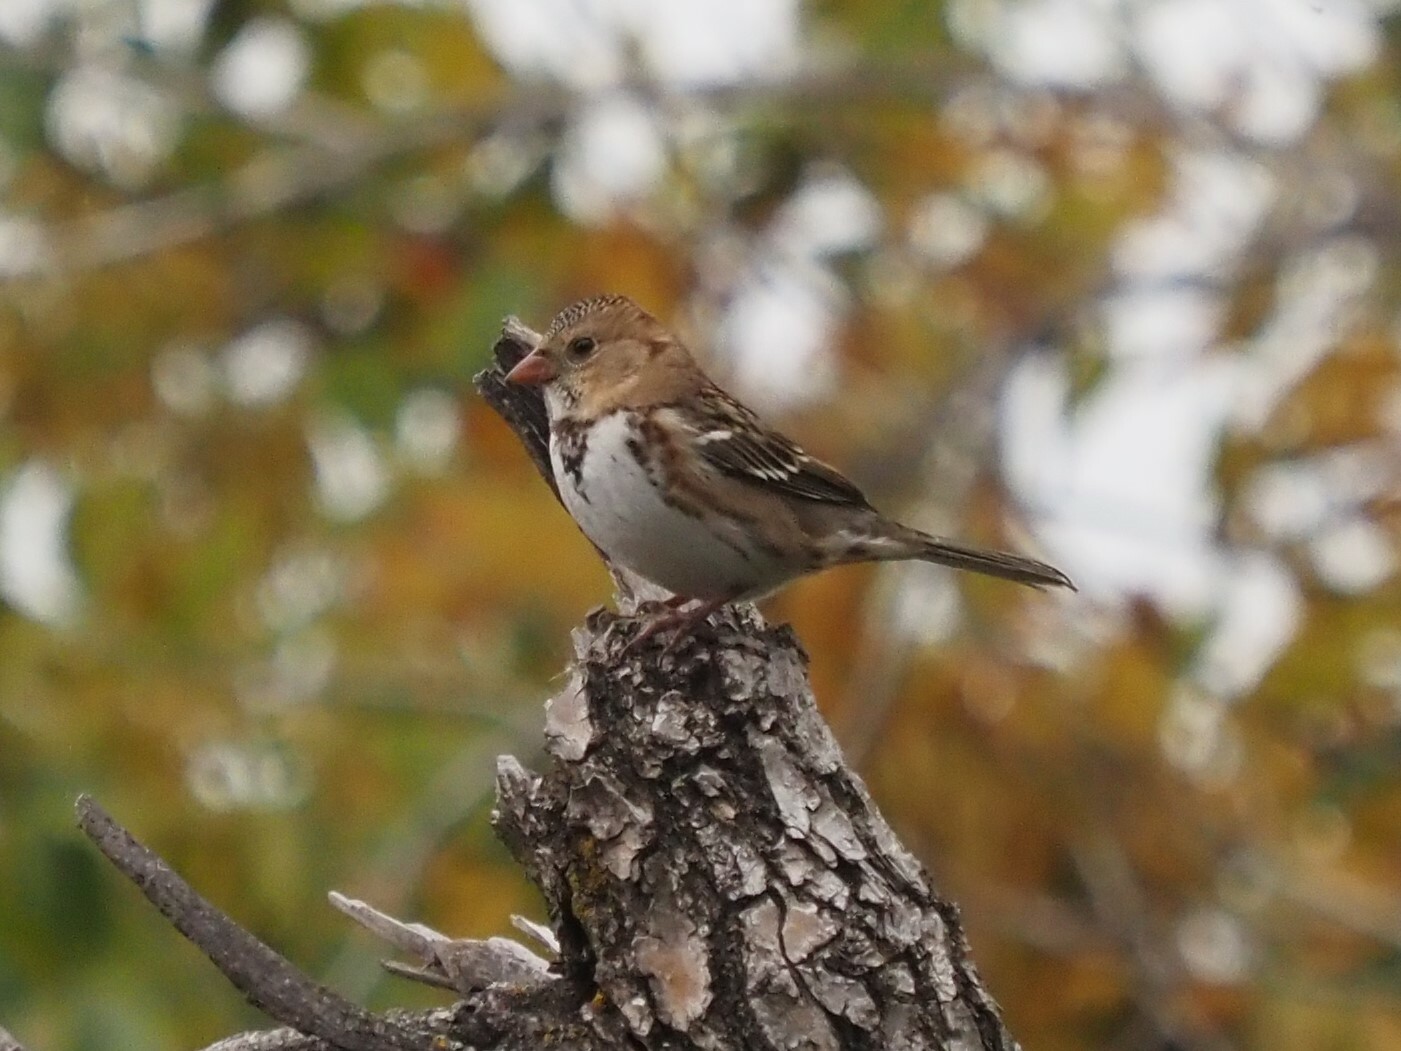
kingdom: Animalia
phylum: Chordata
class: Aves
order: Passeriformes
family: Passerellidae
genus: Zonotrichia
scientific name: Zonotrichia querula
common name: Harris's sparrow
